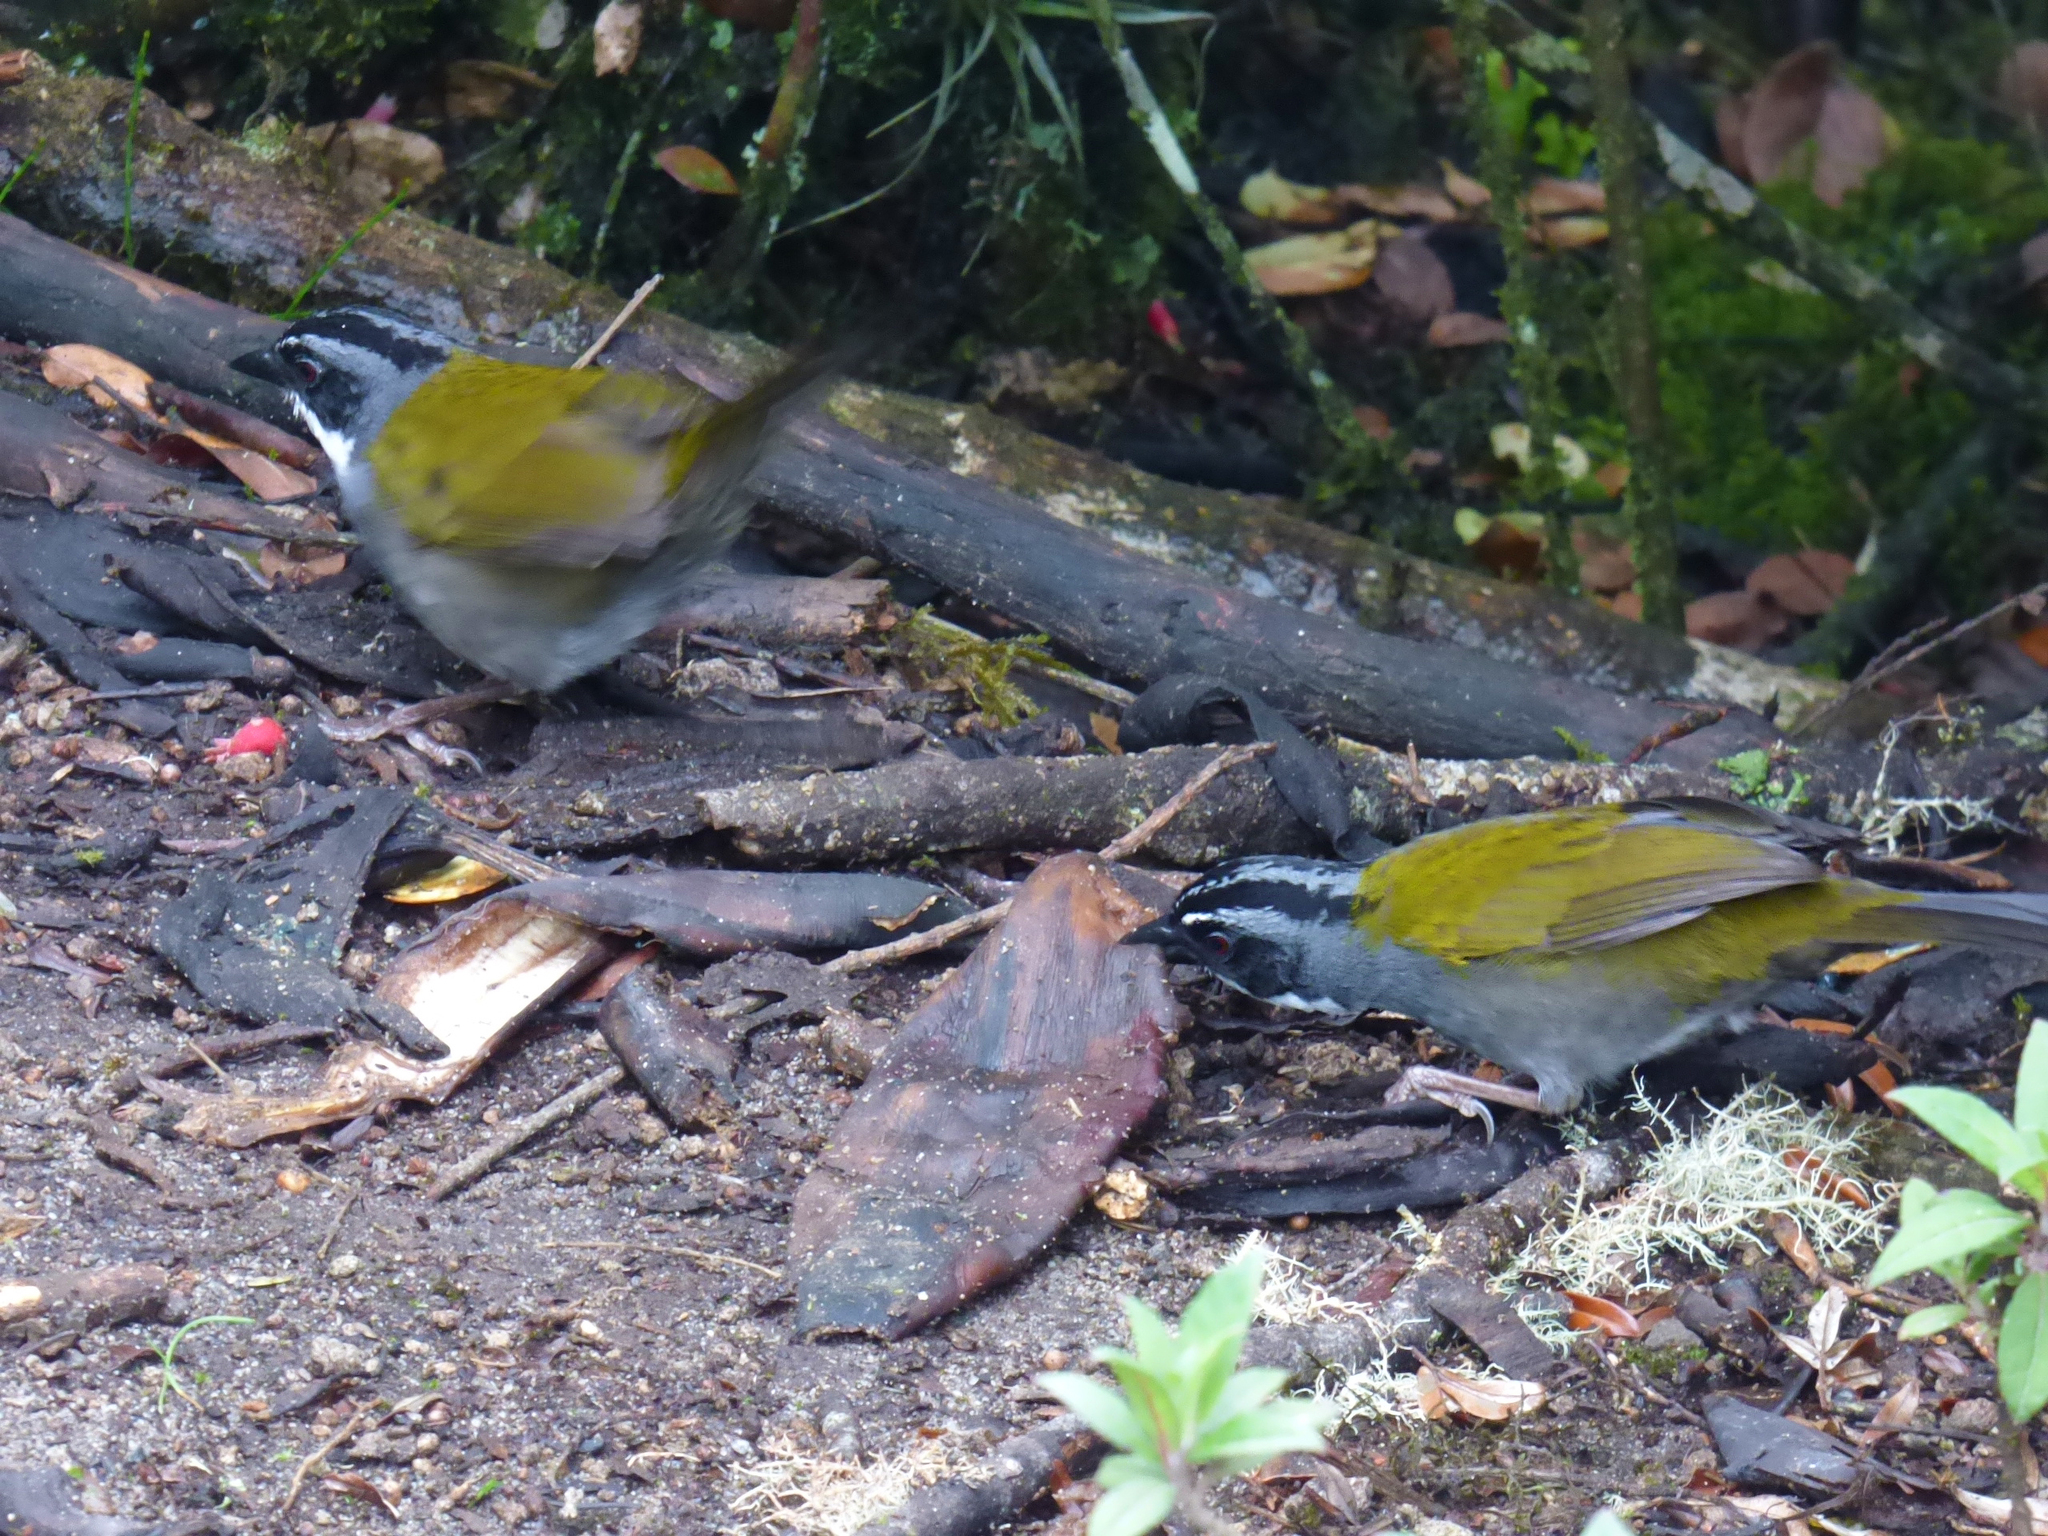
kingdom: Animalia
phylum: Chordata
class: Aves
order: Passeriformes
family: Passerellidae
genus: Arremon
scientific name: Arremon assimilis
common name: Grey-browed brushfinch
